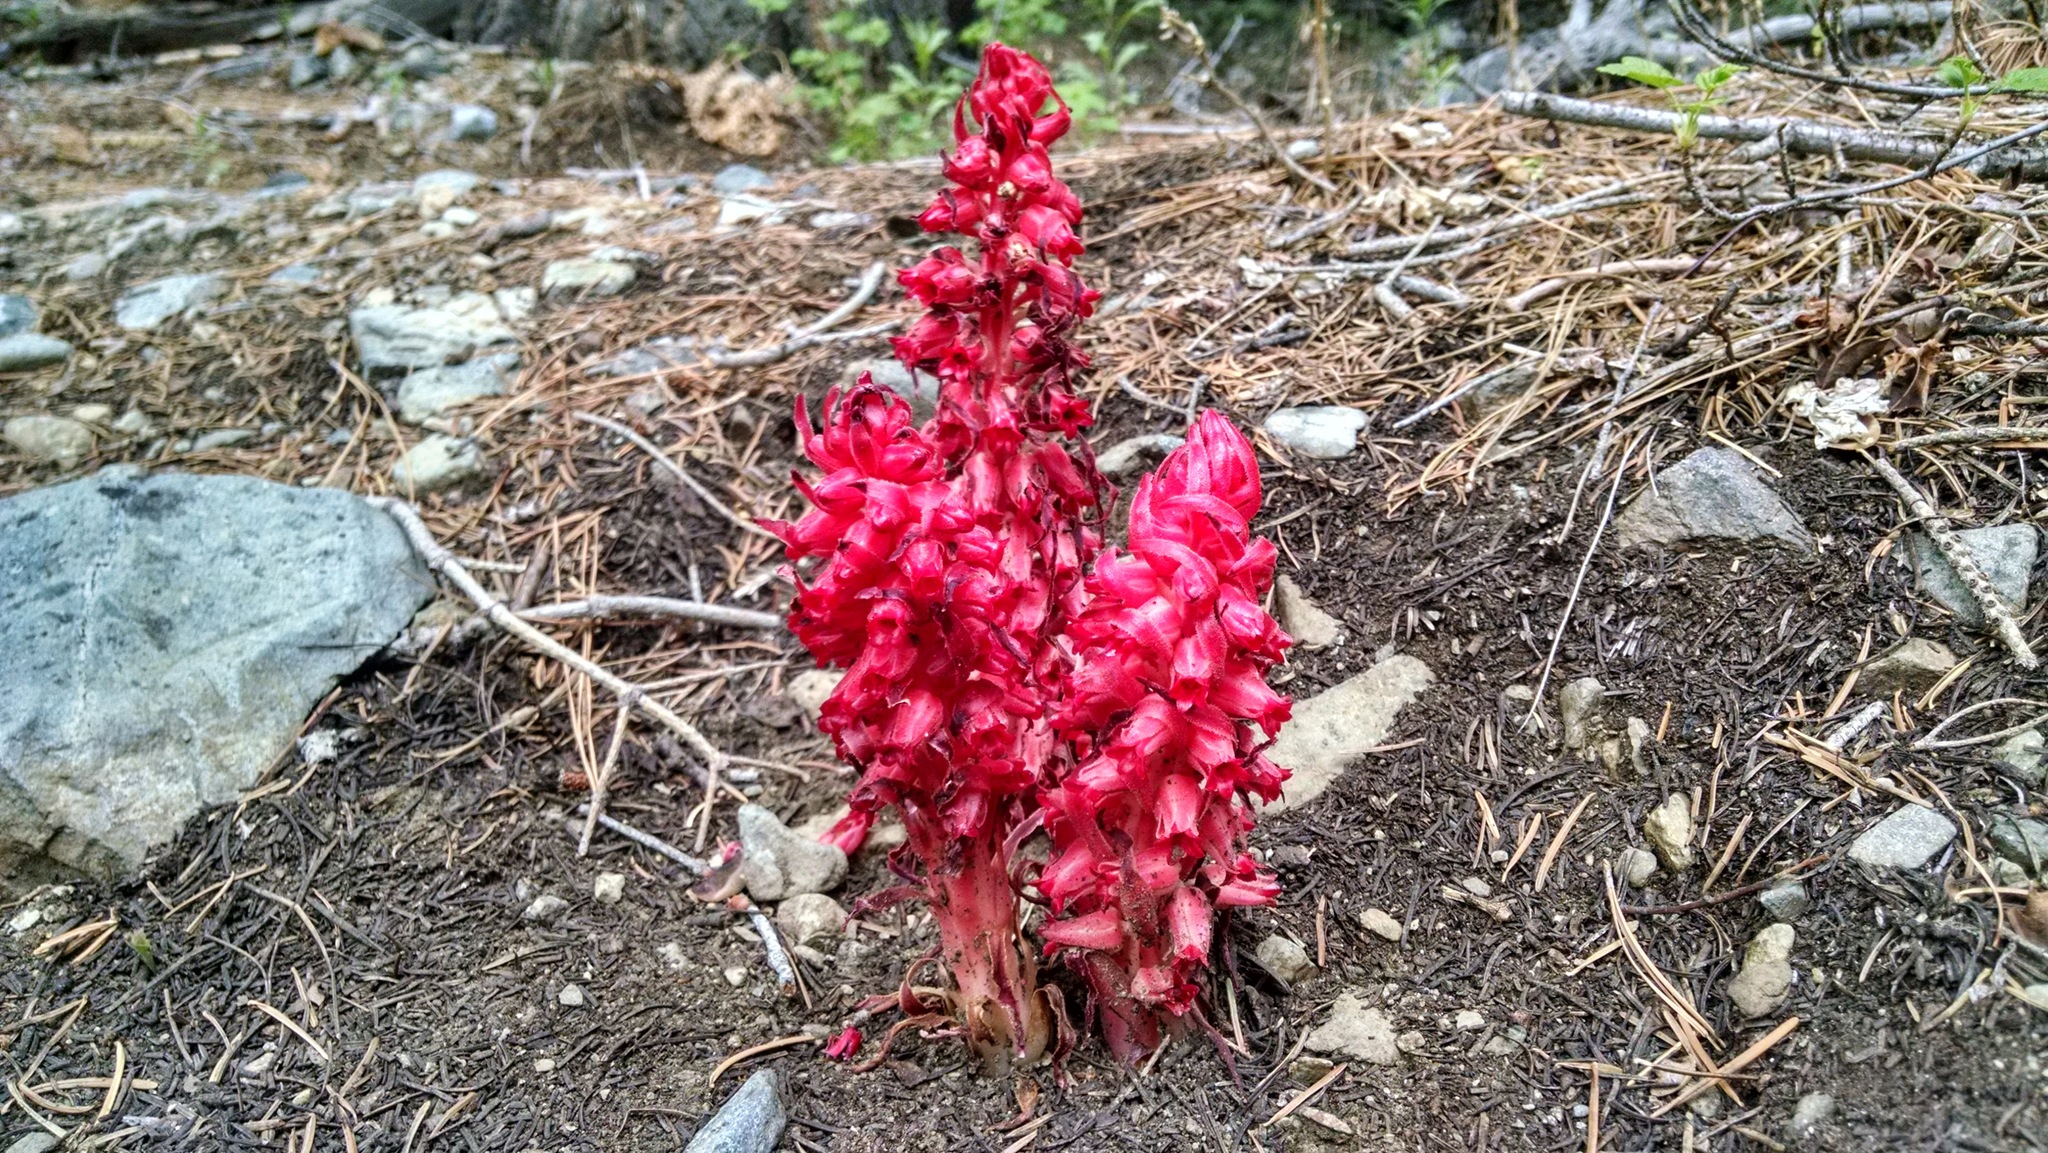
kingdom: Plantae
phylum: Tracheophyta
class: Magnoliopsida
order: Ericales
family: Ericaceae
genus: Sarcodes
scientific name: Sarcodes sanguinea
